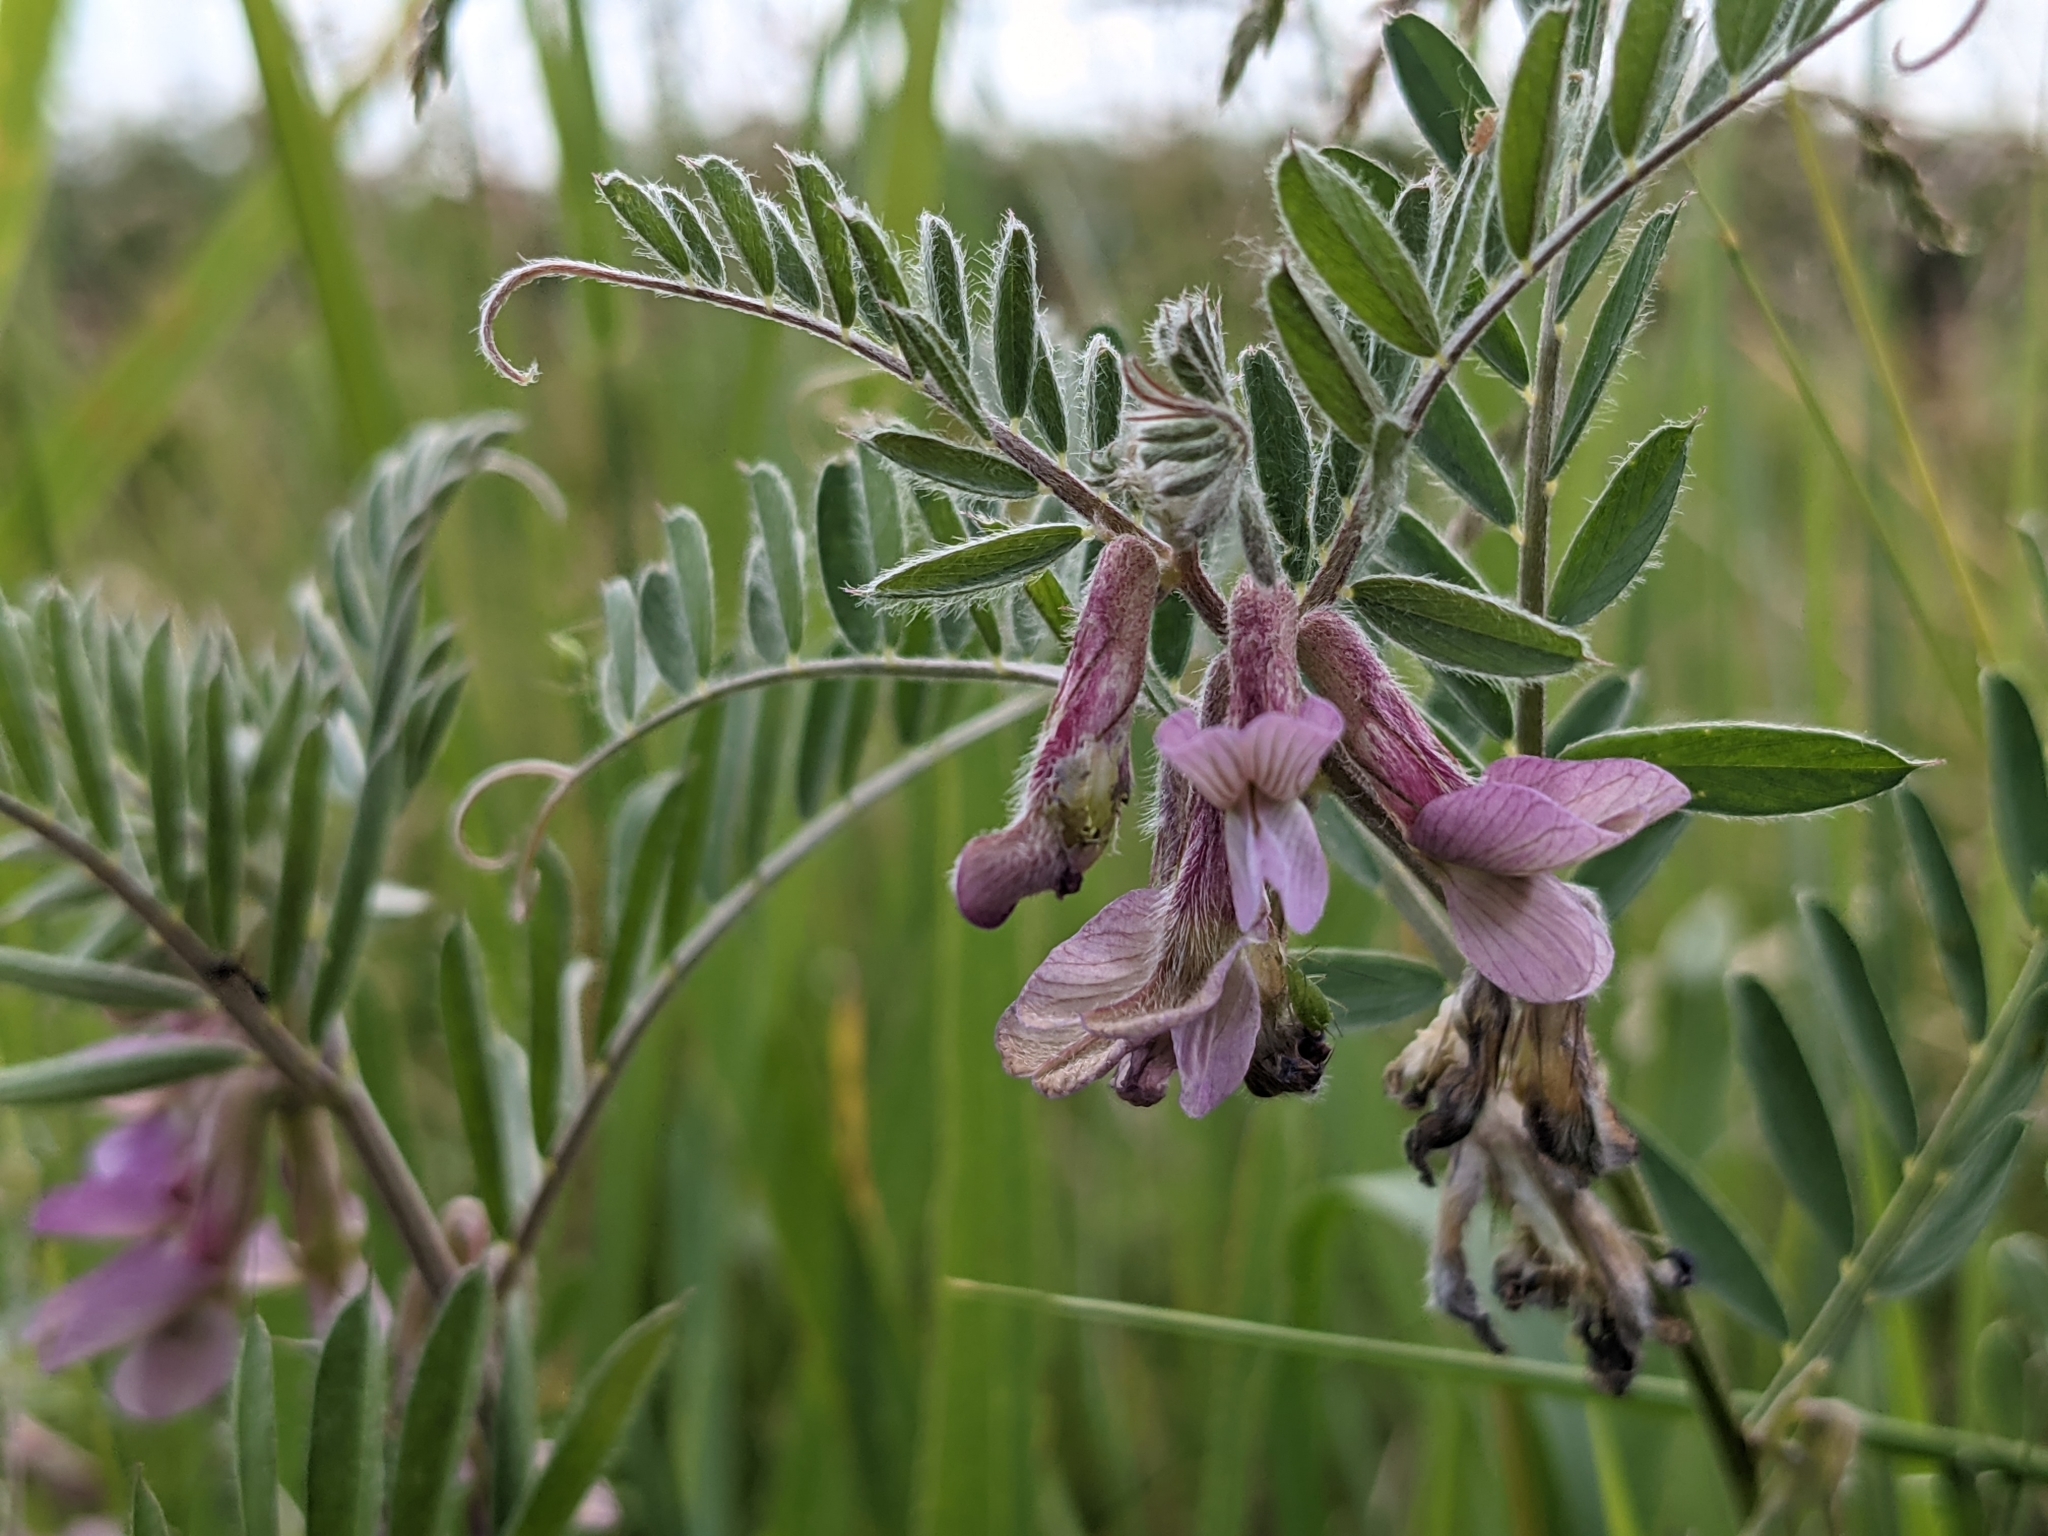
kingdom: Plantae
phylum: Tracheophyta
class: Magnoliopsida
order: Fabales
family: Fabaceae
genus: Vicia
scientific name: Vicia pannonica
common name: Hungarian vetch
